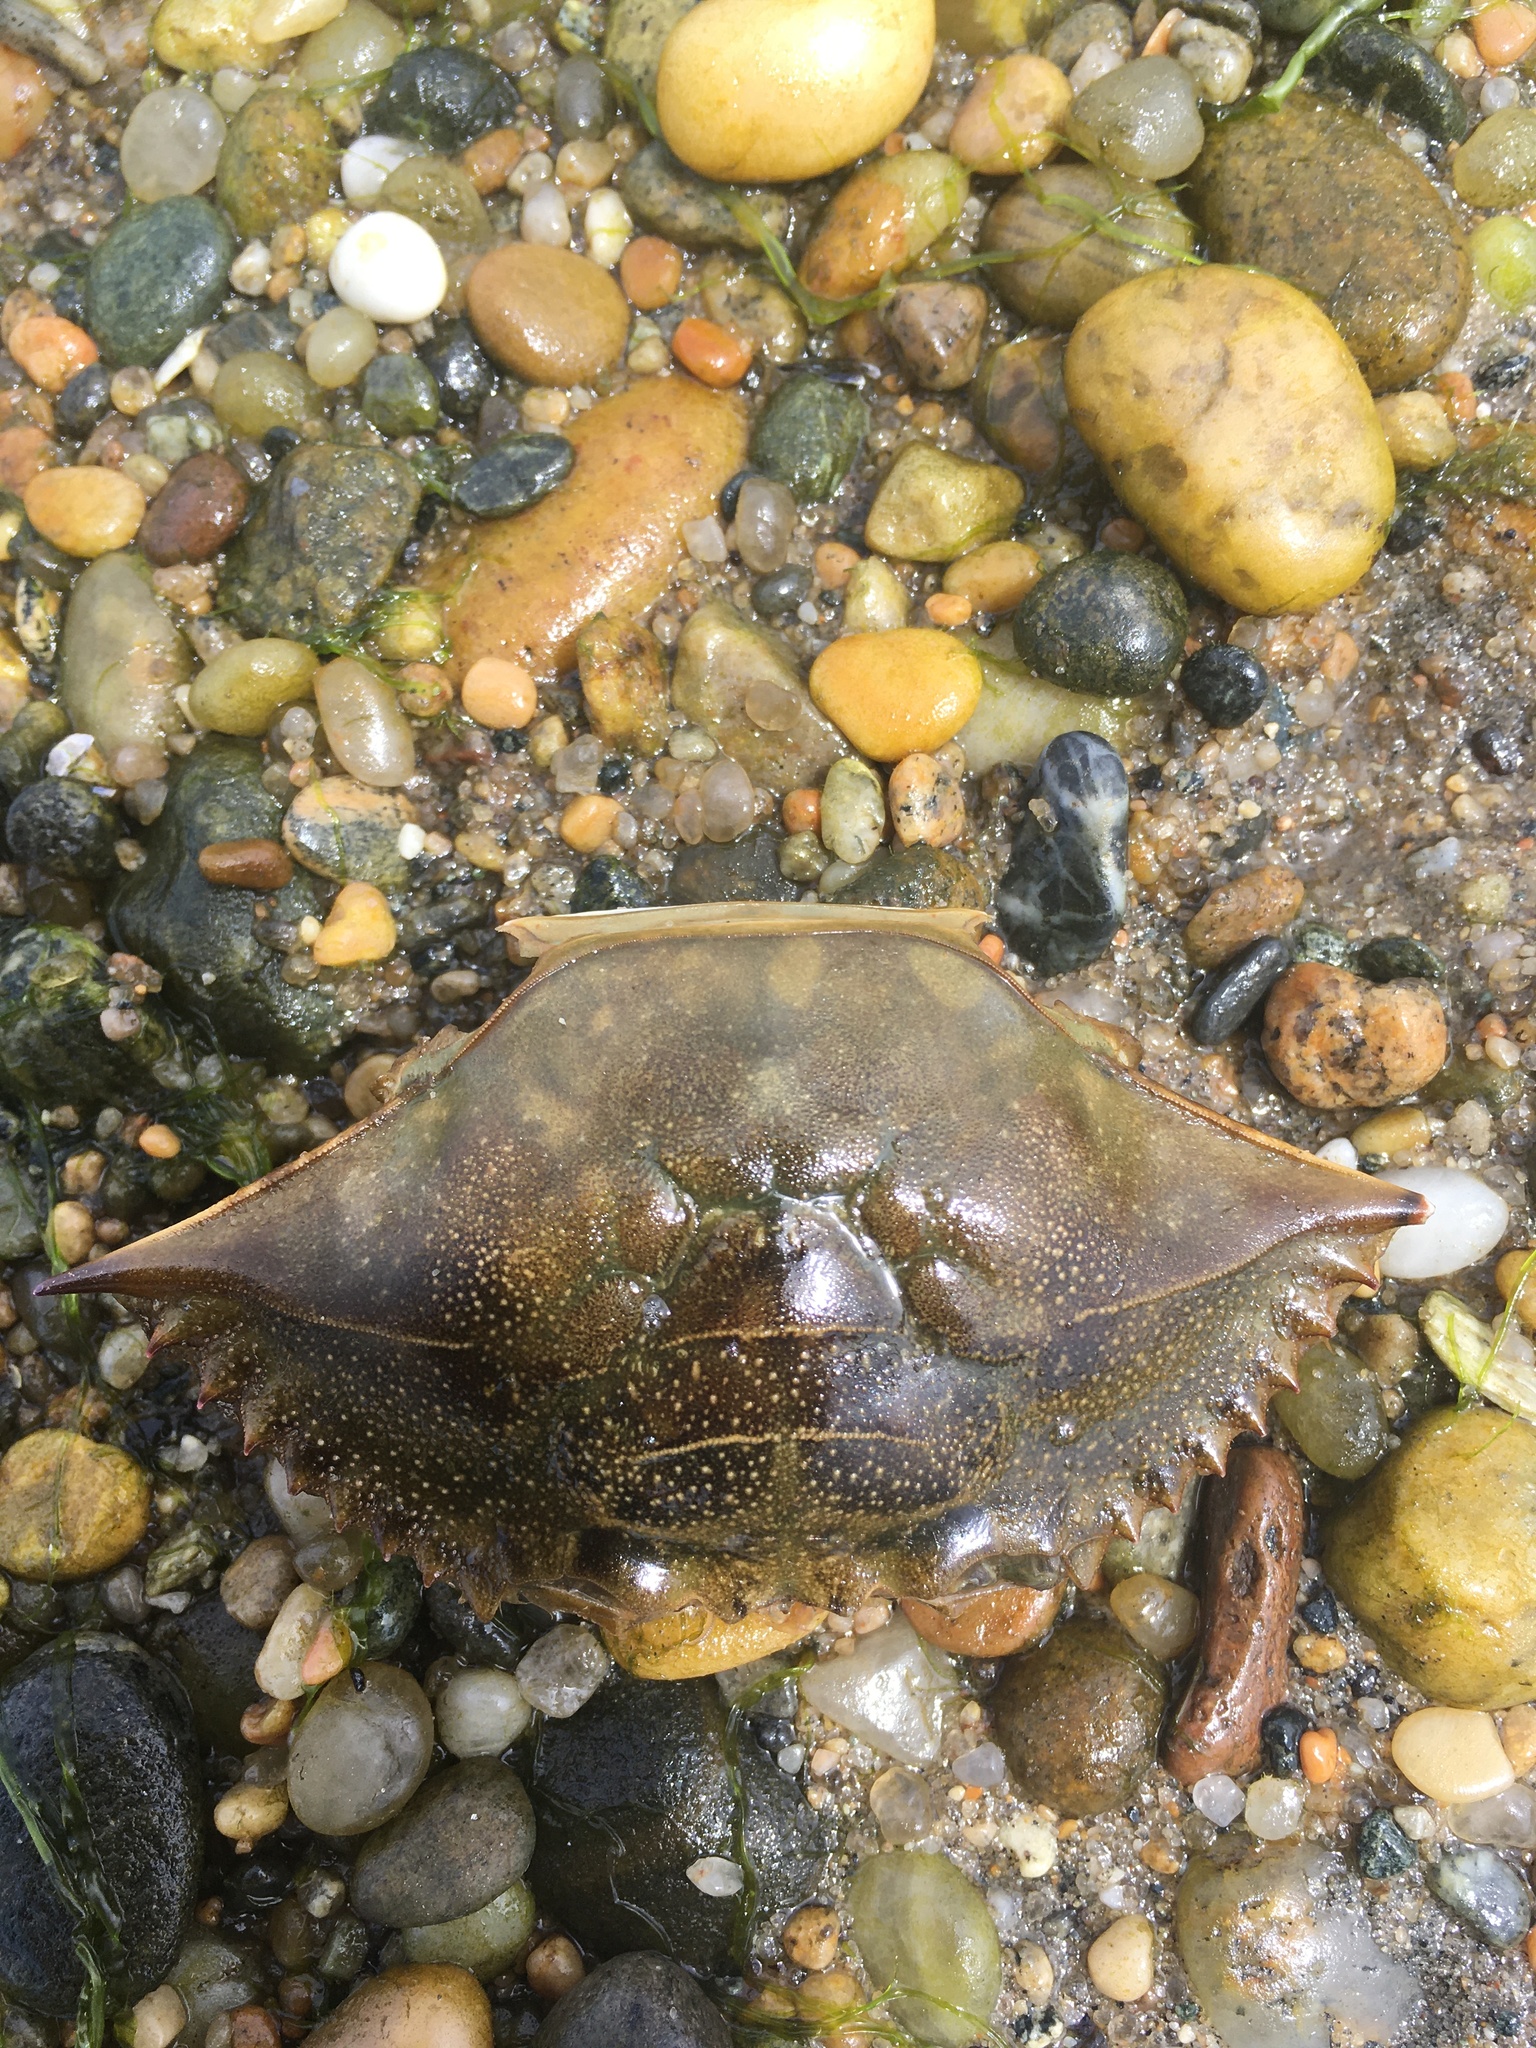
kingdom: Animalia
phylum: Arthropoda
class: Malacostraca
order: Decapoda
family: Portunidae
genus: Callinectes
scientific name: Callinectes sapidus
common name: Blue crab
